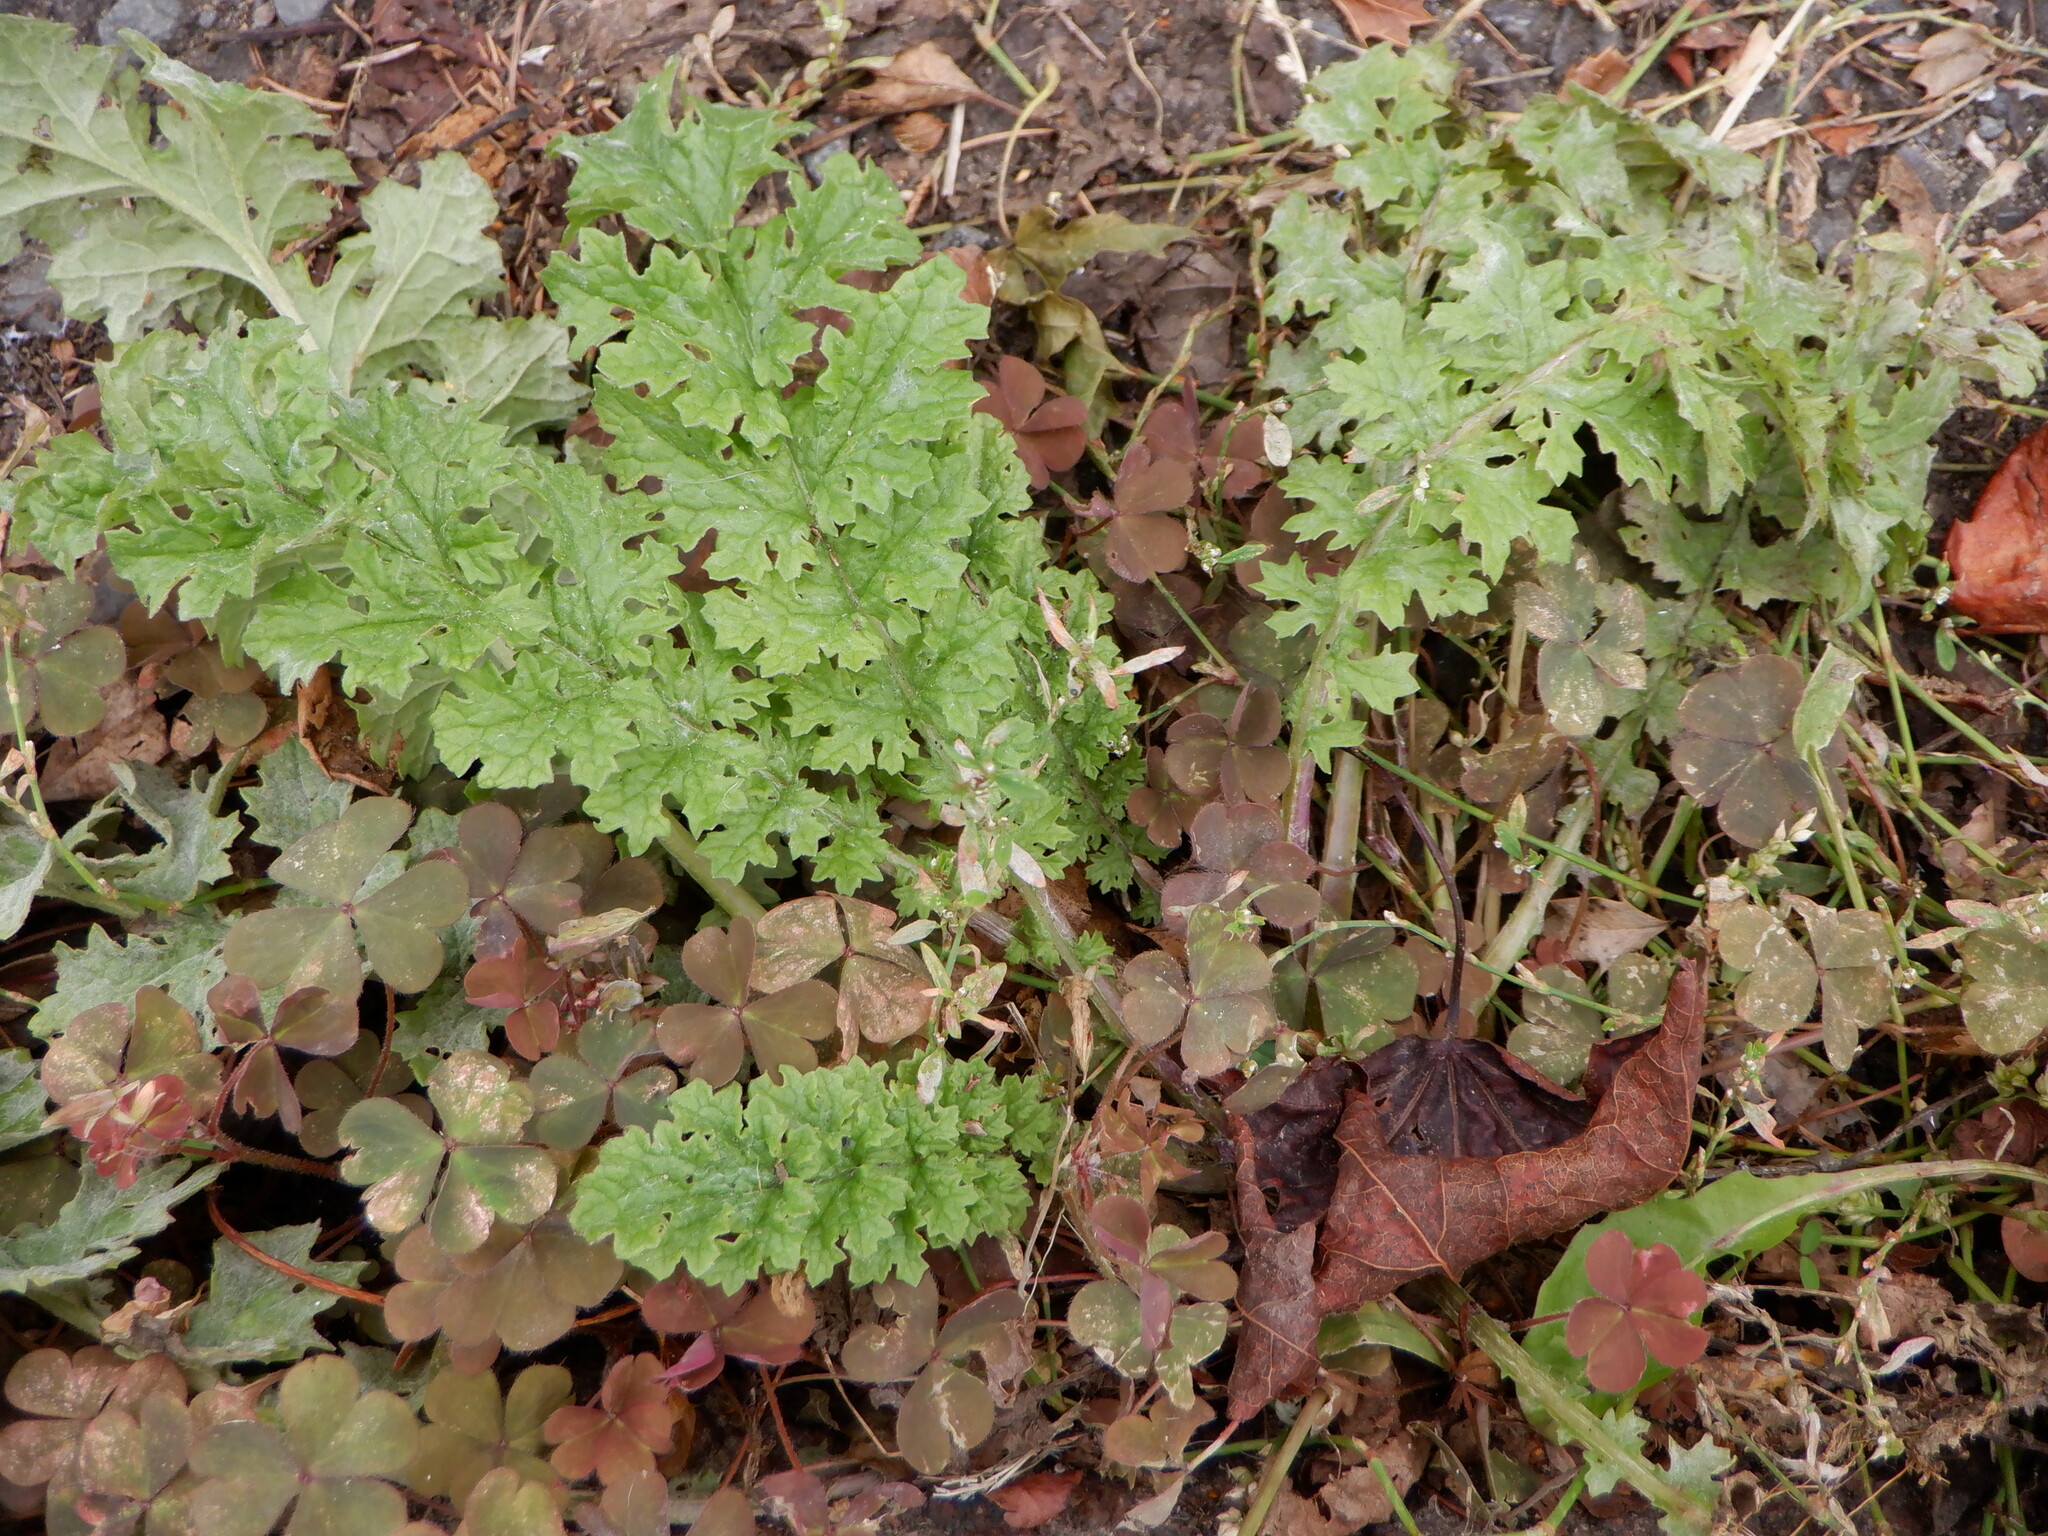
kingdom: Plantae
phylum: Tracheophyta
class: Magnoliopsida
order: Asterales
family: Asteraceae
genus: Jacobaea
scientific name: Jacobaea vulgaris
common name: Stinking willie
